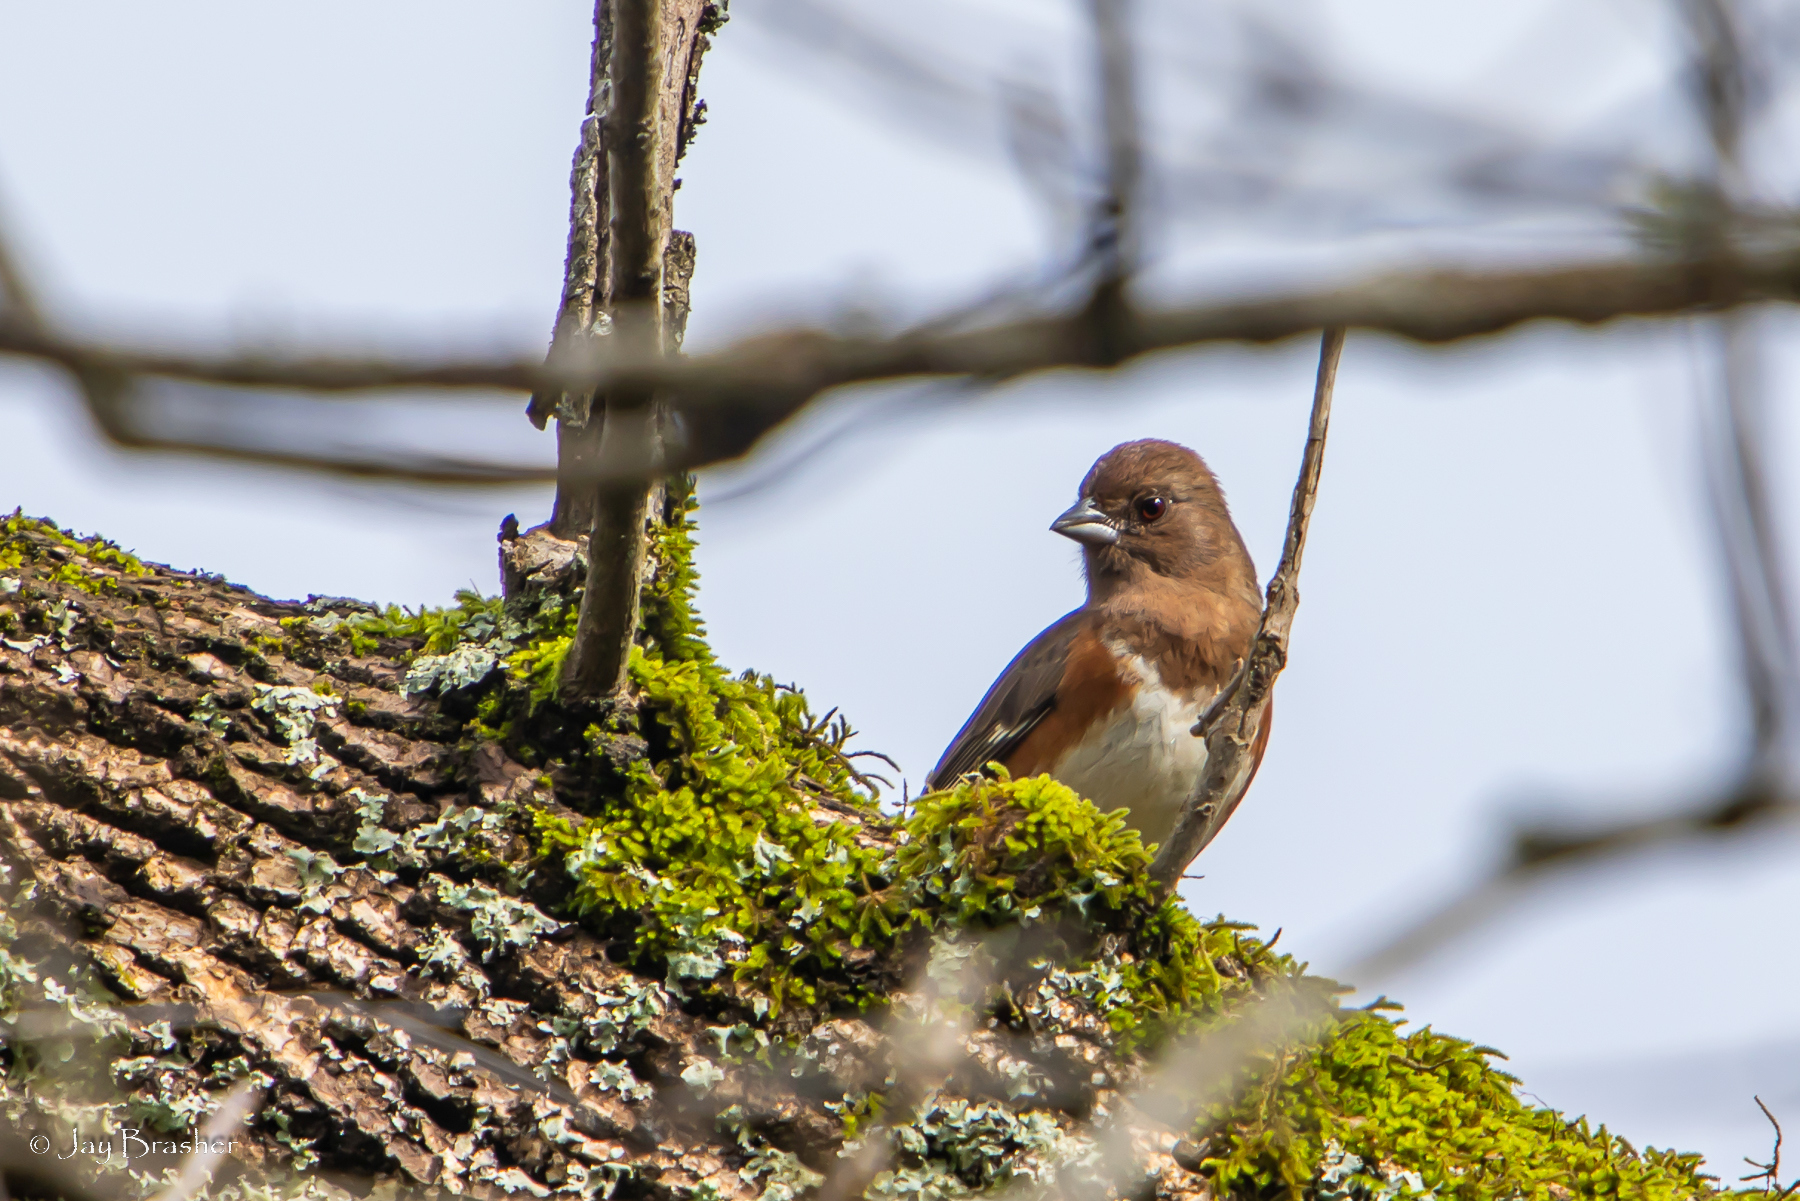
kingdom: Animalia
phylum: Chordata
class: Aves
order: Passeriformes
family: Passerellidae
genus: Pipilo
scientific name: Pipilo erythrophthalmus
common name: Eastern towhee
